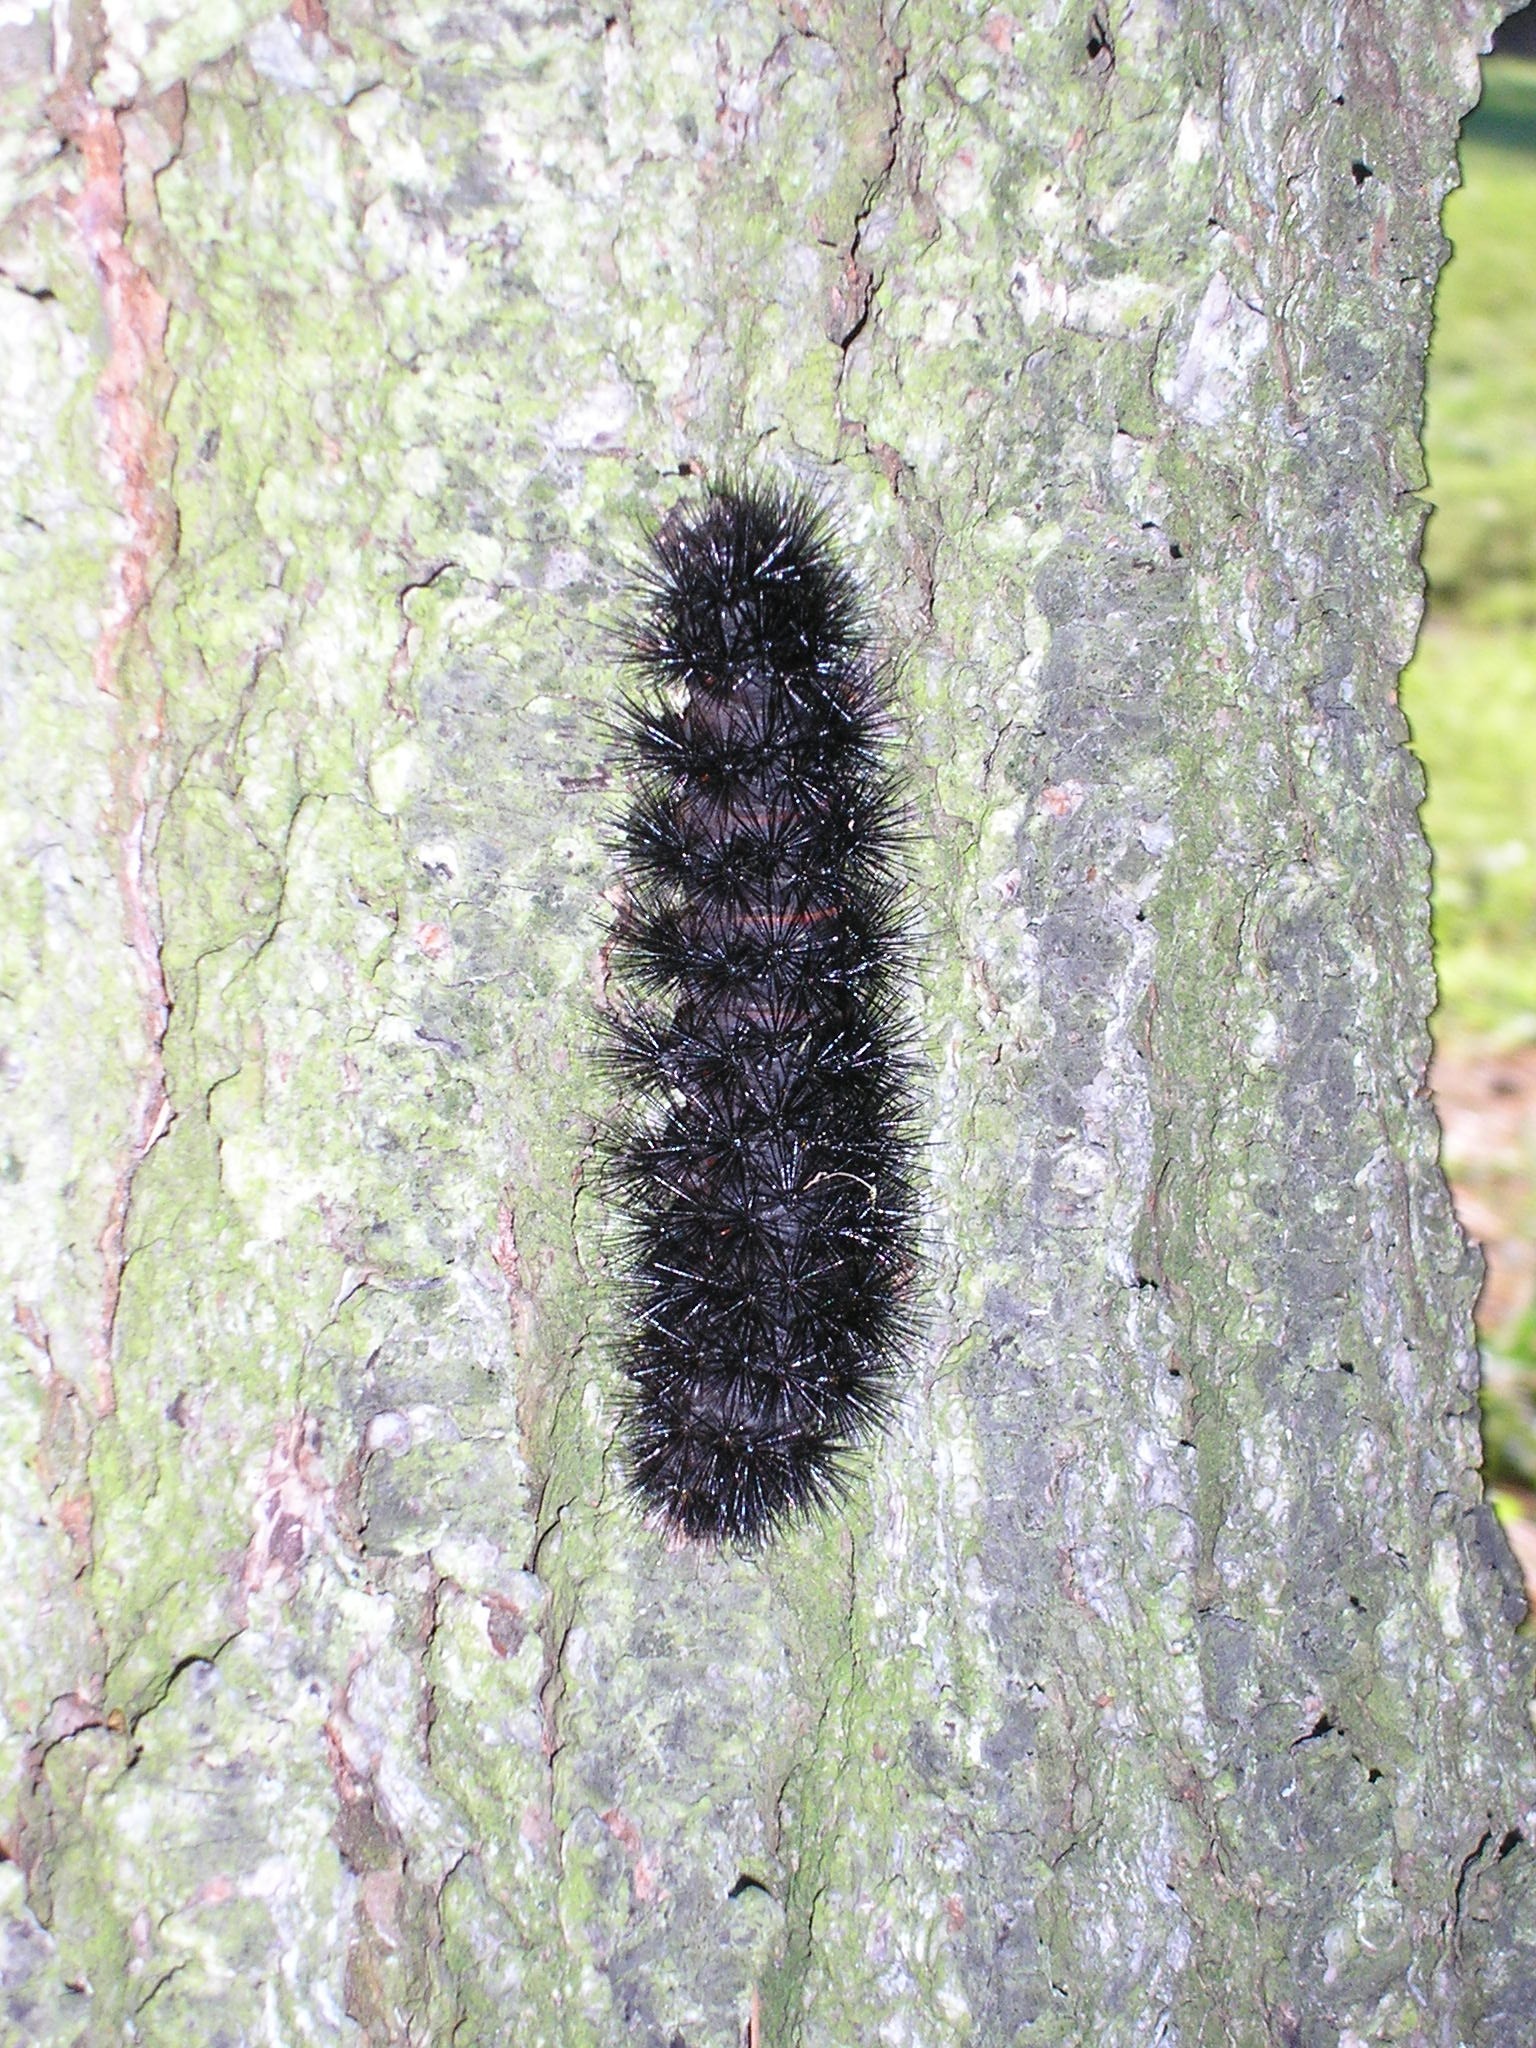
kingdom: Animalia
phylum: Arthropoda
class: Insecta
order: Lepidoptera
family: Erebidae
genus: Hypercompe
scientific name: Hypercompe scribonia
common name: Giant leopard moth
